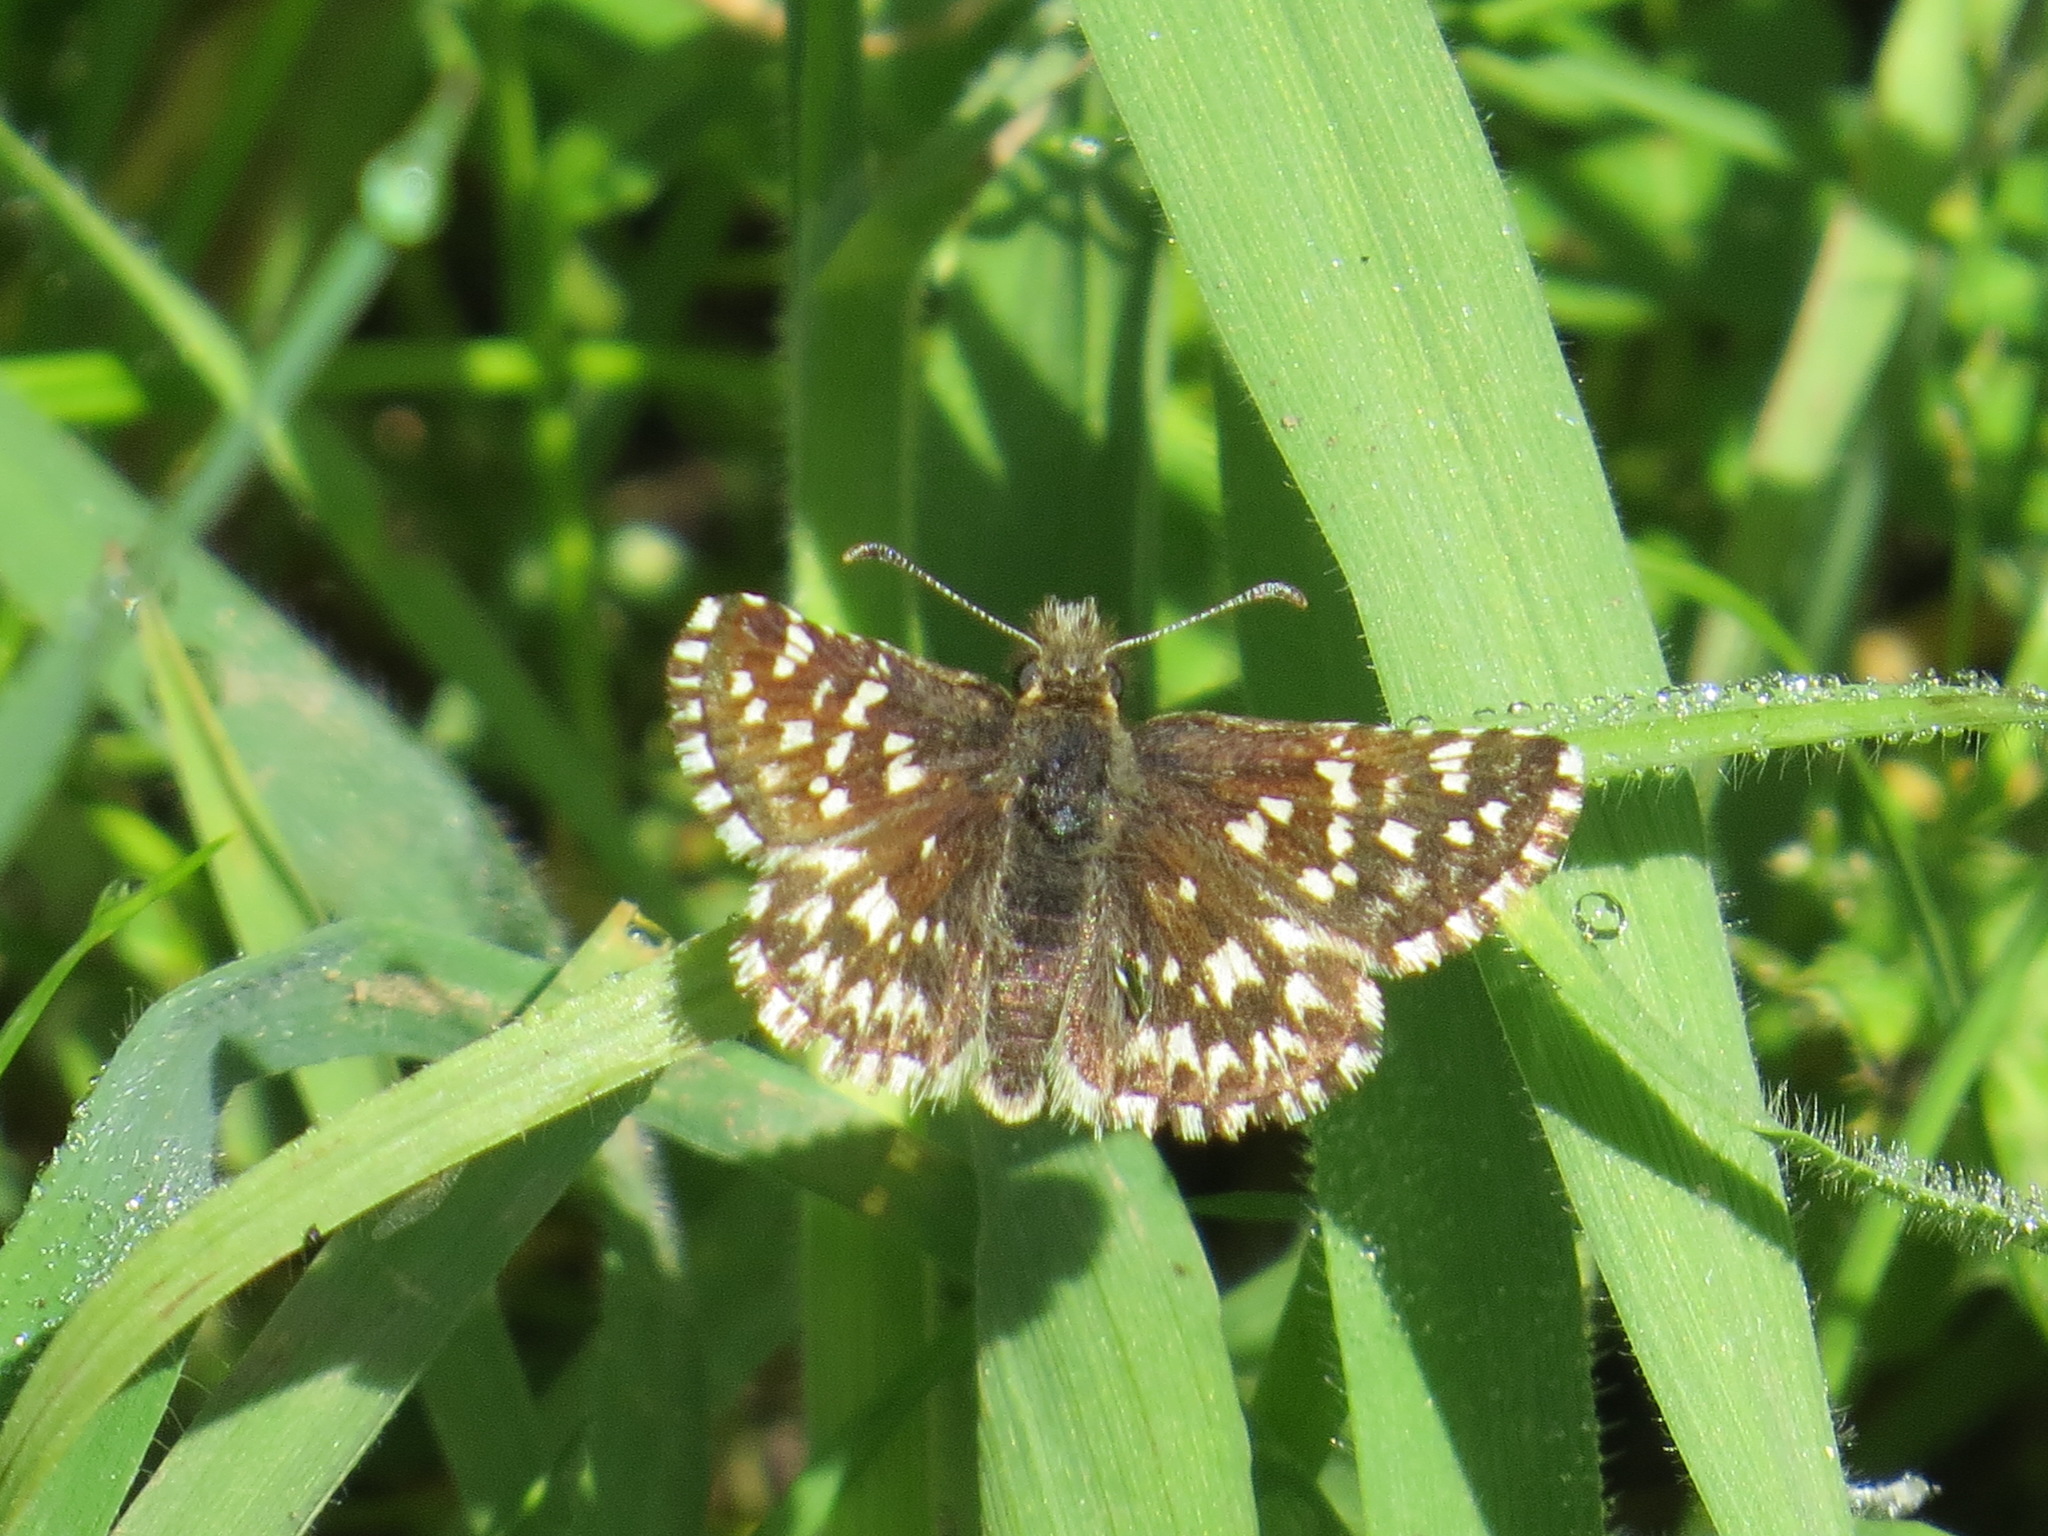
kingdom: Animalia
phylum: Arthropoda
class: Insecta
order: Lepidoptera
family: Hesperiidae
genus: Pyrgus
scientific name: Pyrgus ruralis
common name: Two-banded checkered-skipper
